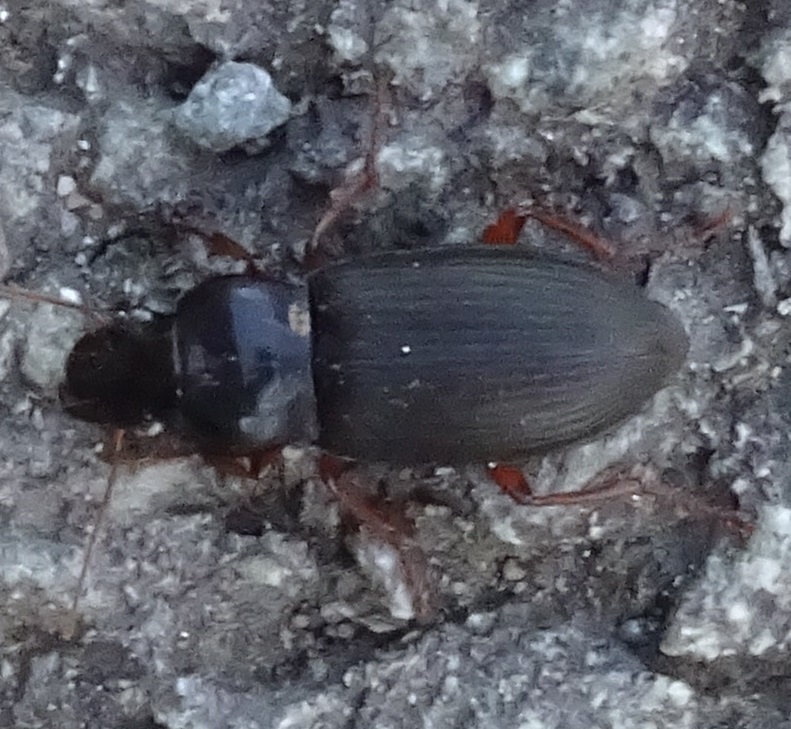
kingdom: Animalia
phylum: Arthropoda
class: Insecta
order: Coleoptera
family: Carabidae
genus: Harpalus
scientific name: Harpalus rufipes
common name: Strawberry harp ground beetle
